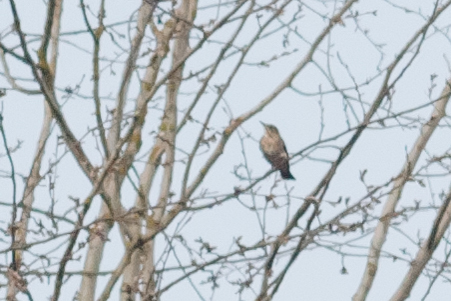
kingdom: Animalia
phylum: Chordata
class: Aves
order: Passeriformes
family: Turdidae
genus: Turdus
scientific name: Turdus philomelos
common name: Song thrush
